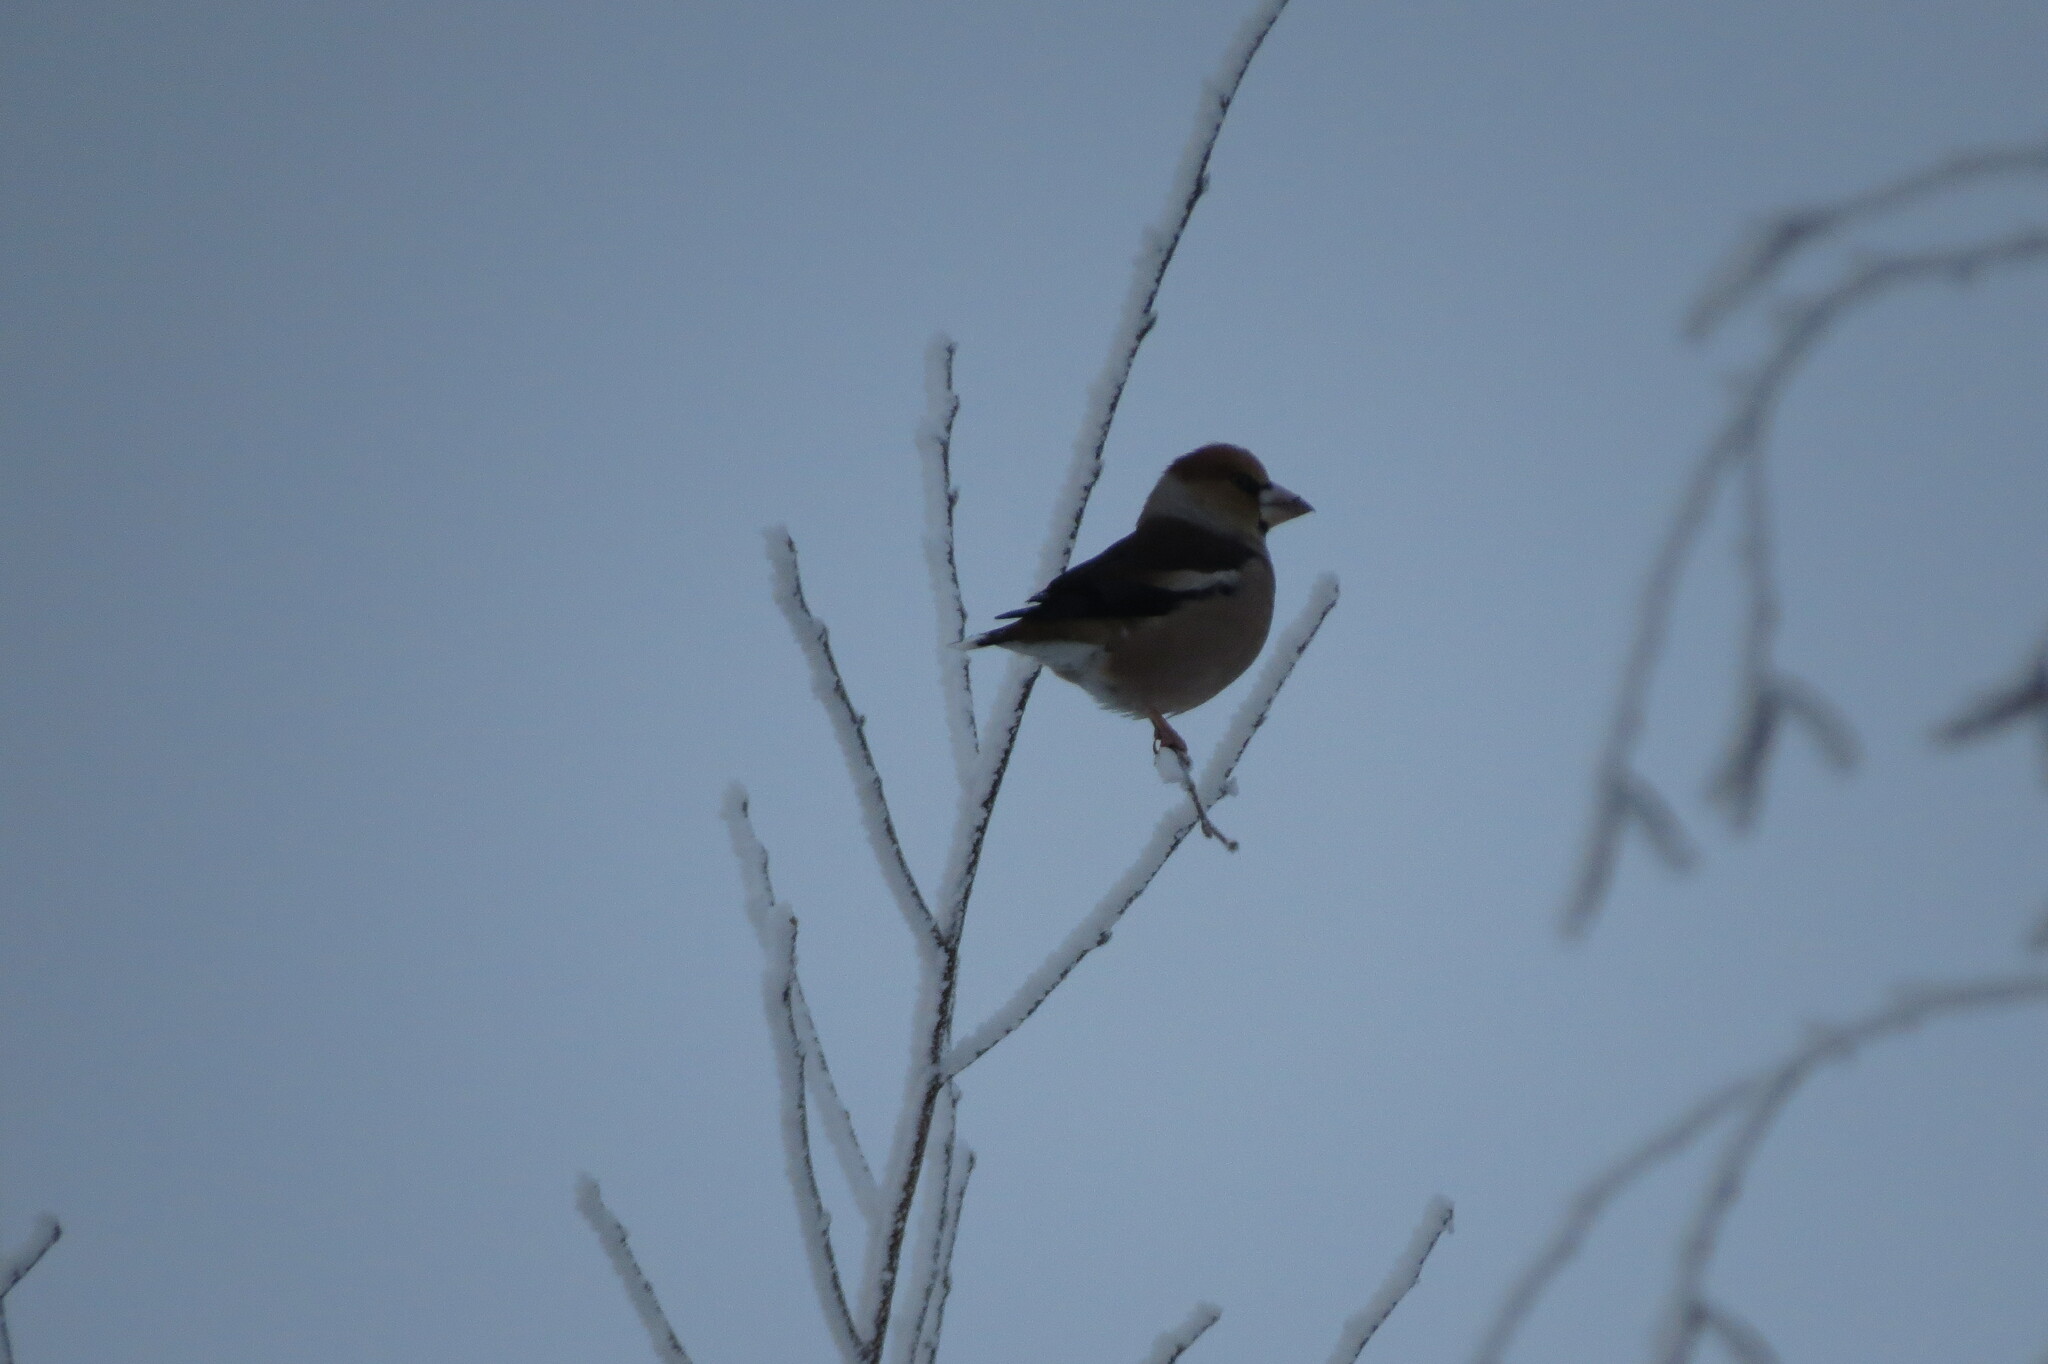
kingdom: Animalia
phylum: Chordata
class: Aves
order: Passeriformes
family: Fringillidae
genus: Coccothraustes
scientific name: Coccothraustes coccothraustes
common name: Hawfinch
